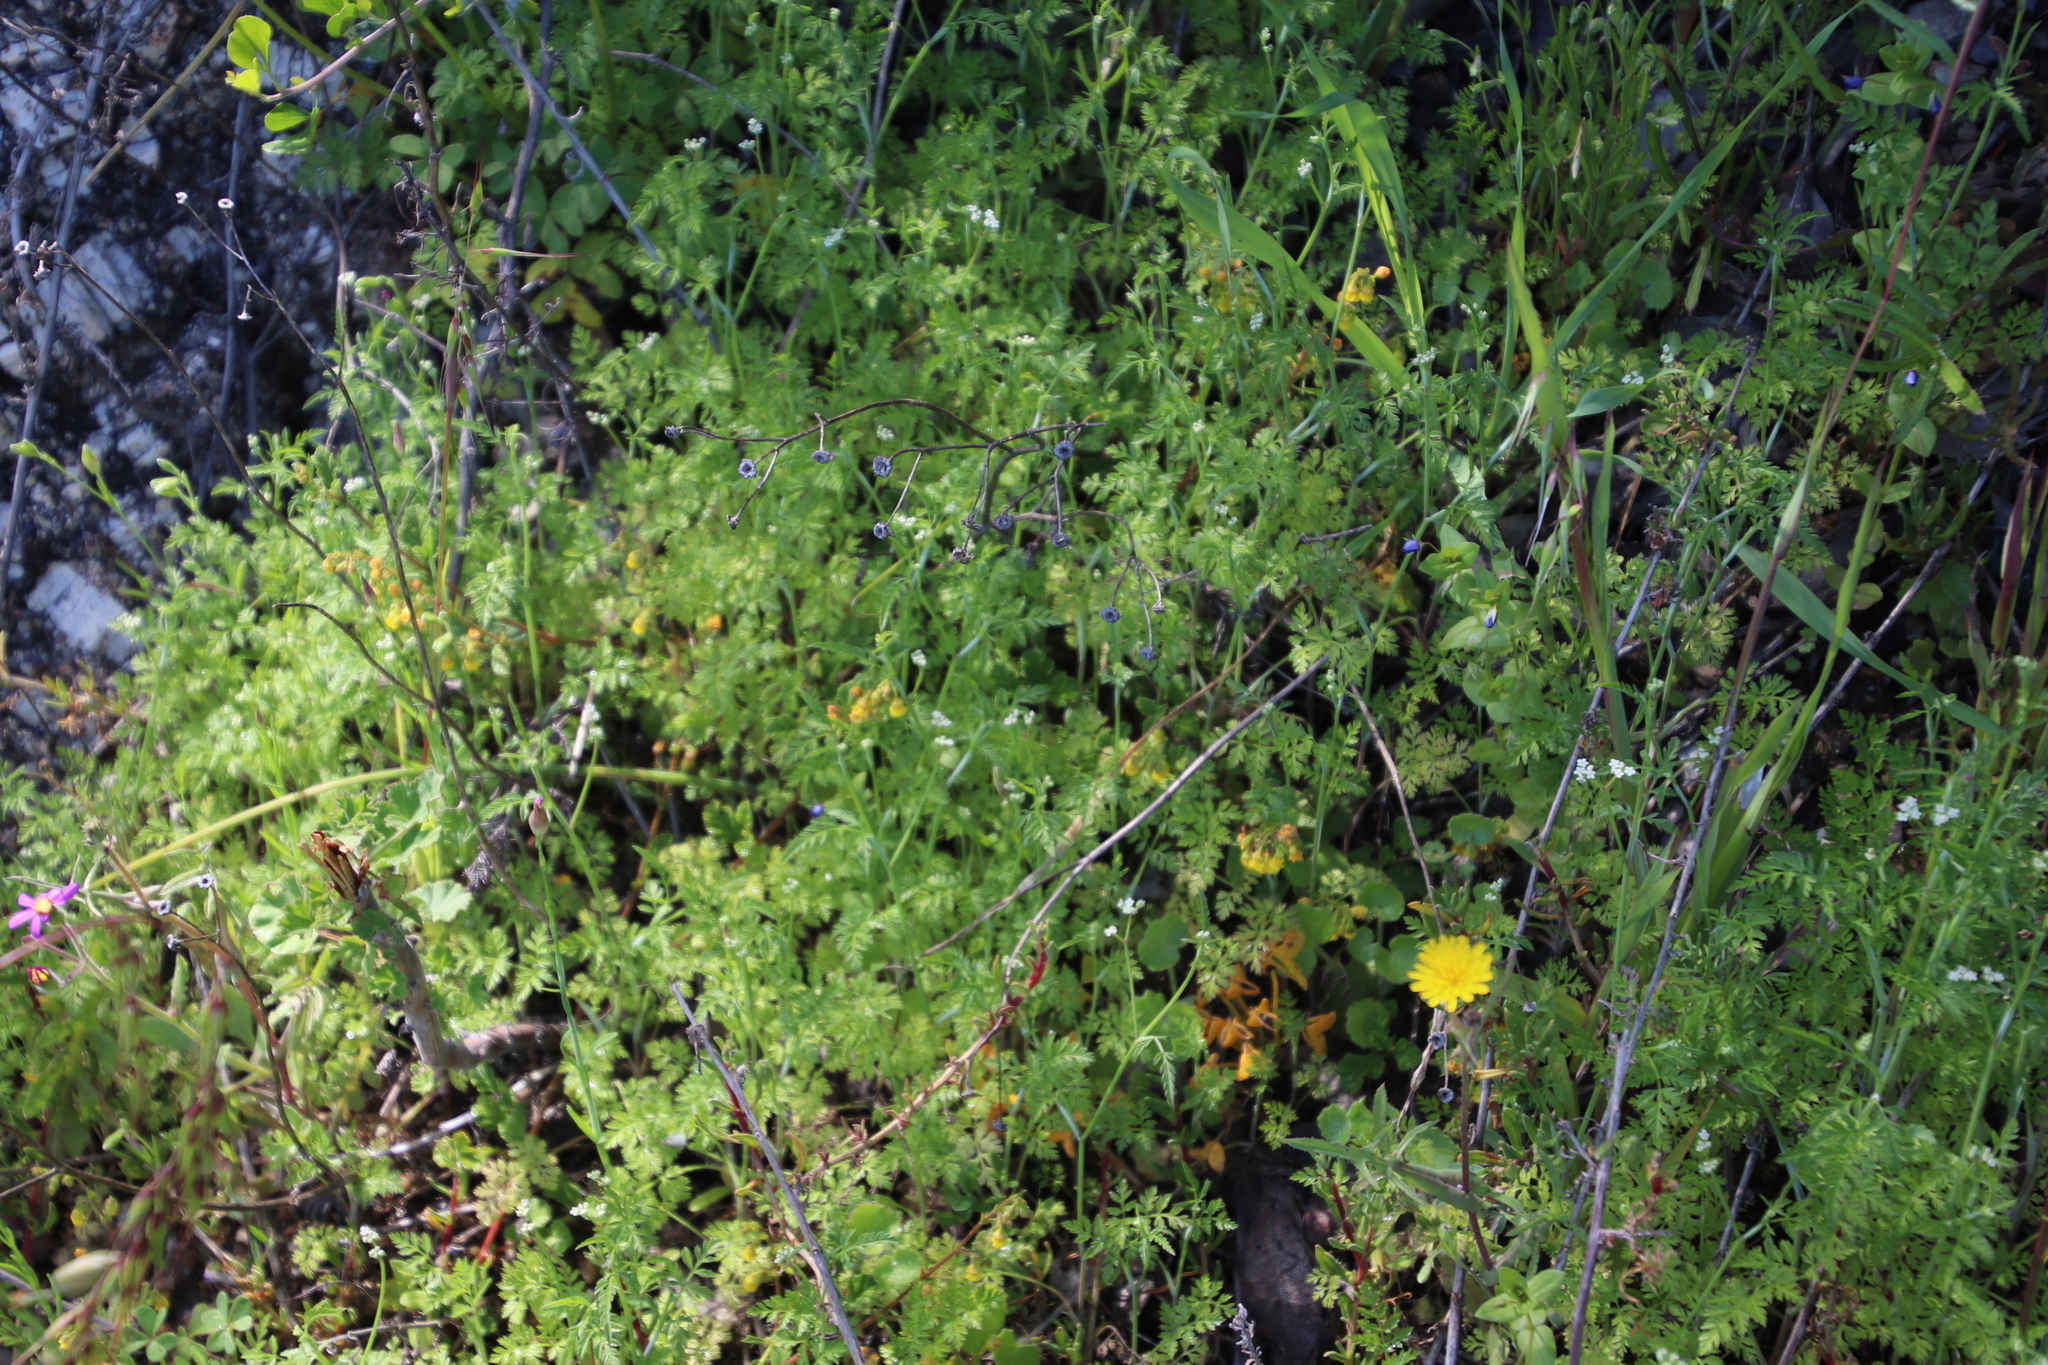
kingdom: Plantae
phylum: Tracheophyta
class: Magnoliopsida
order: Apiales
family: Apiaceae
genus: Torilis
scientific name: Torilis africana
